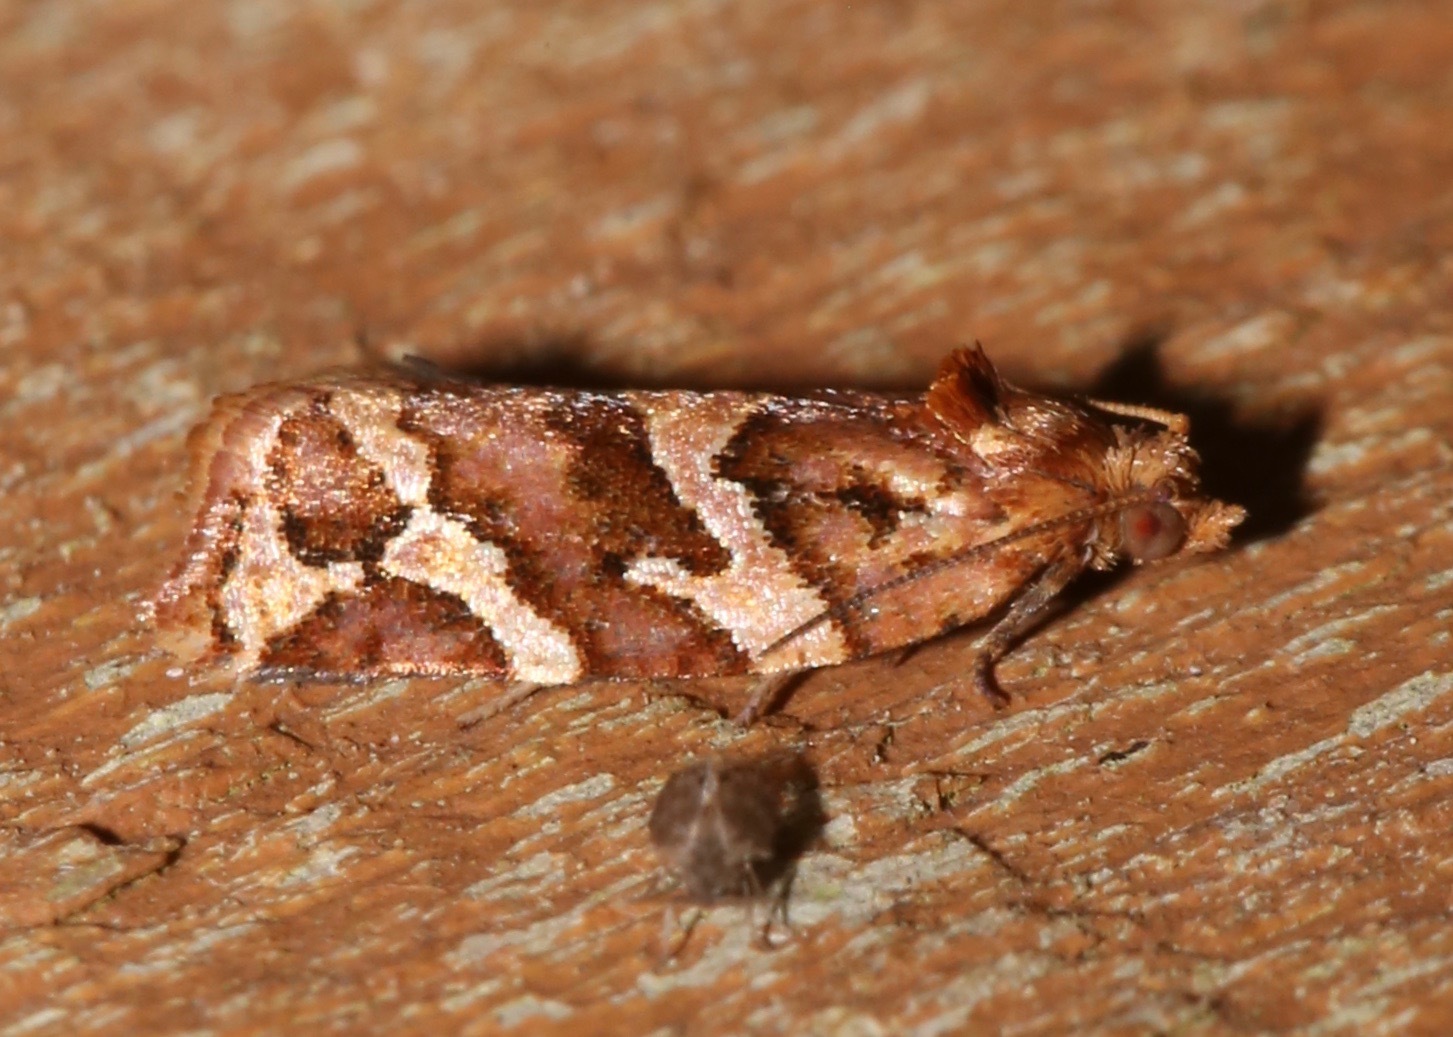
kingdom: Animalia
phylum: Arthropoda
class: Insecta
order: Lepidoptera
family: Tortricidae
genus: Argyrotaenia
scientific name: Argyrotaenia hodgesi
